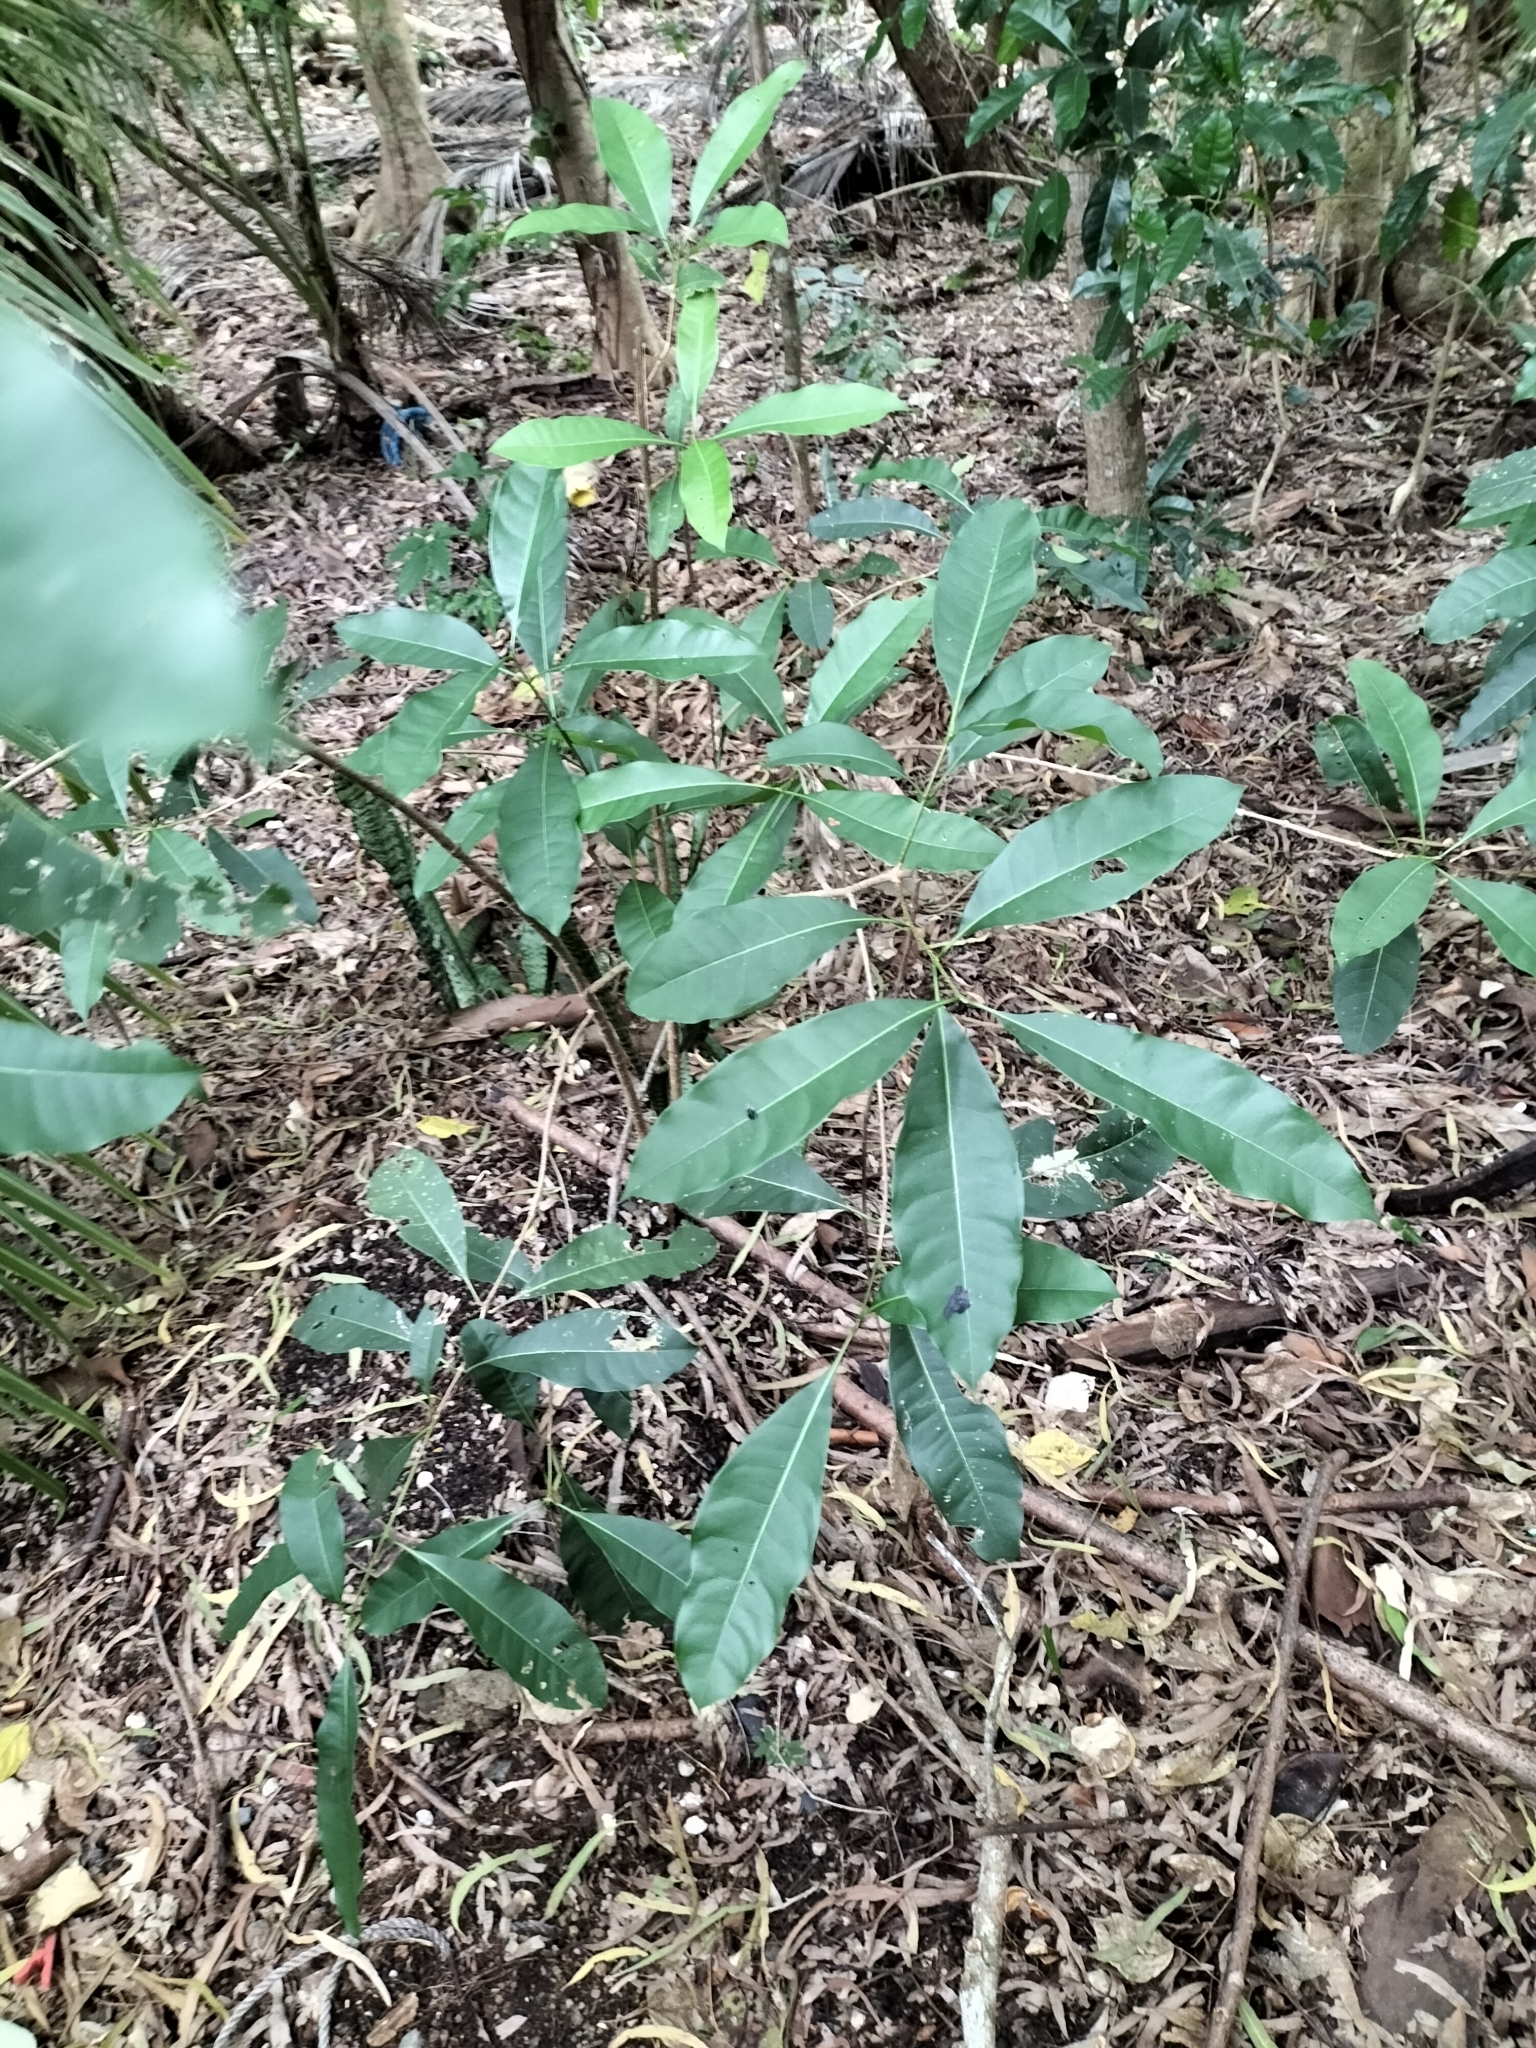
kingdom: Plantae
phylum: Tracheophyta
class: Magnoliopsida
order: Lamiales
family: Oleaceae
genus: Chionanthus
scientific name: Chionanthus ramiflorus
